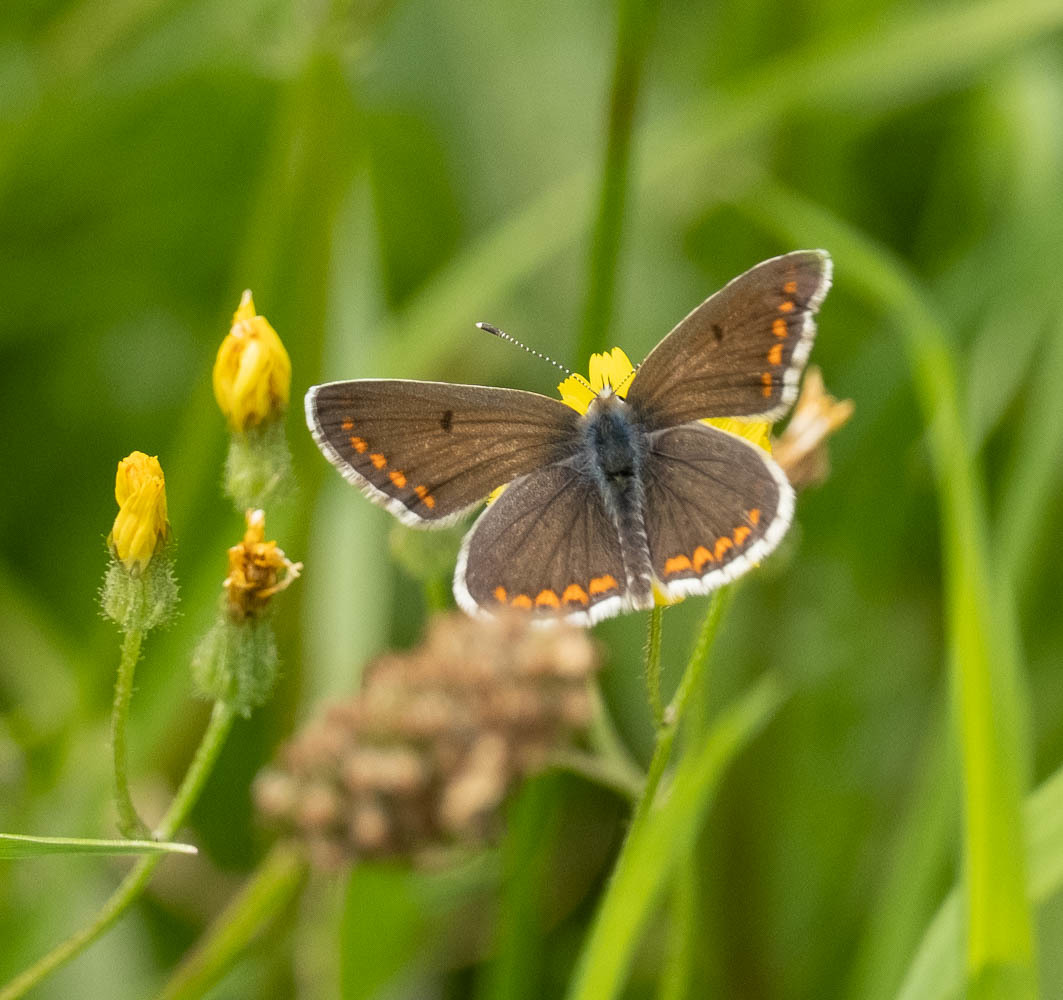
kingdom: Animalia
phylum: Arthropoda
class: Insecta
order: Lepidoptera
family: Lycaenidae
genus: Aricia
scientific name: Aricia agestis
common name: Brown argus
